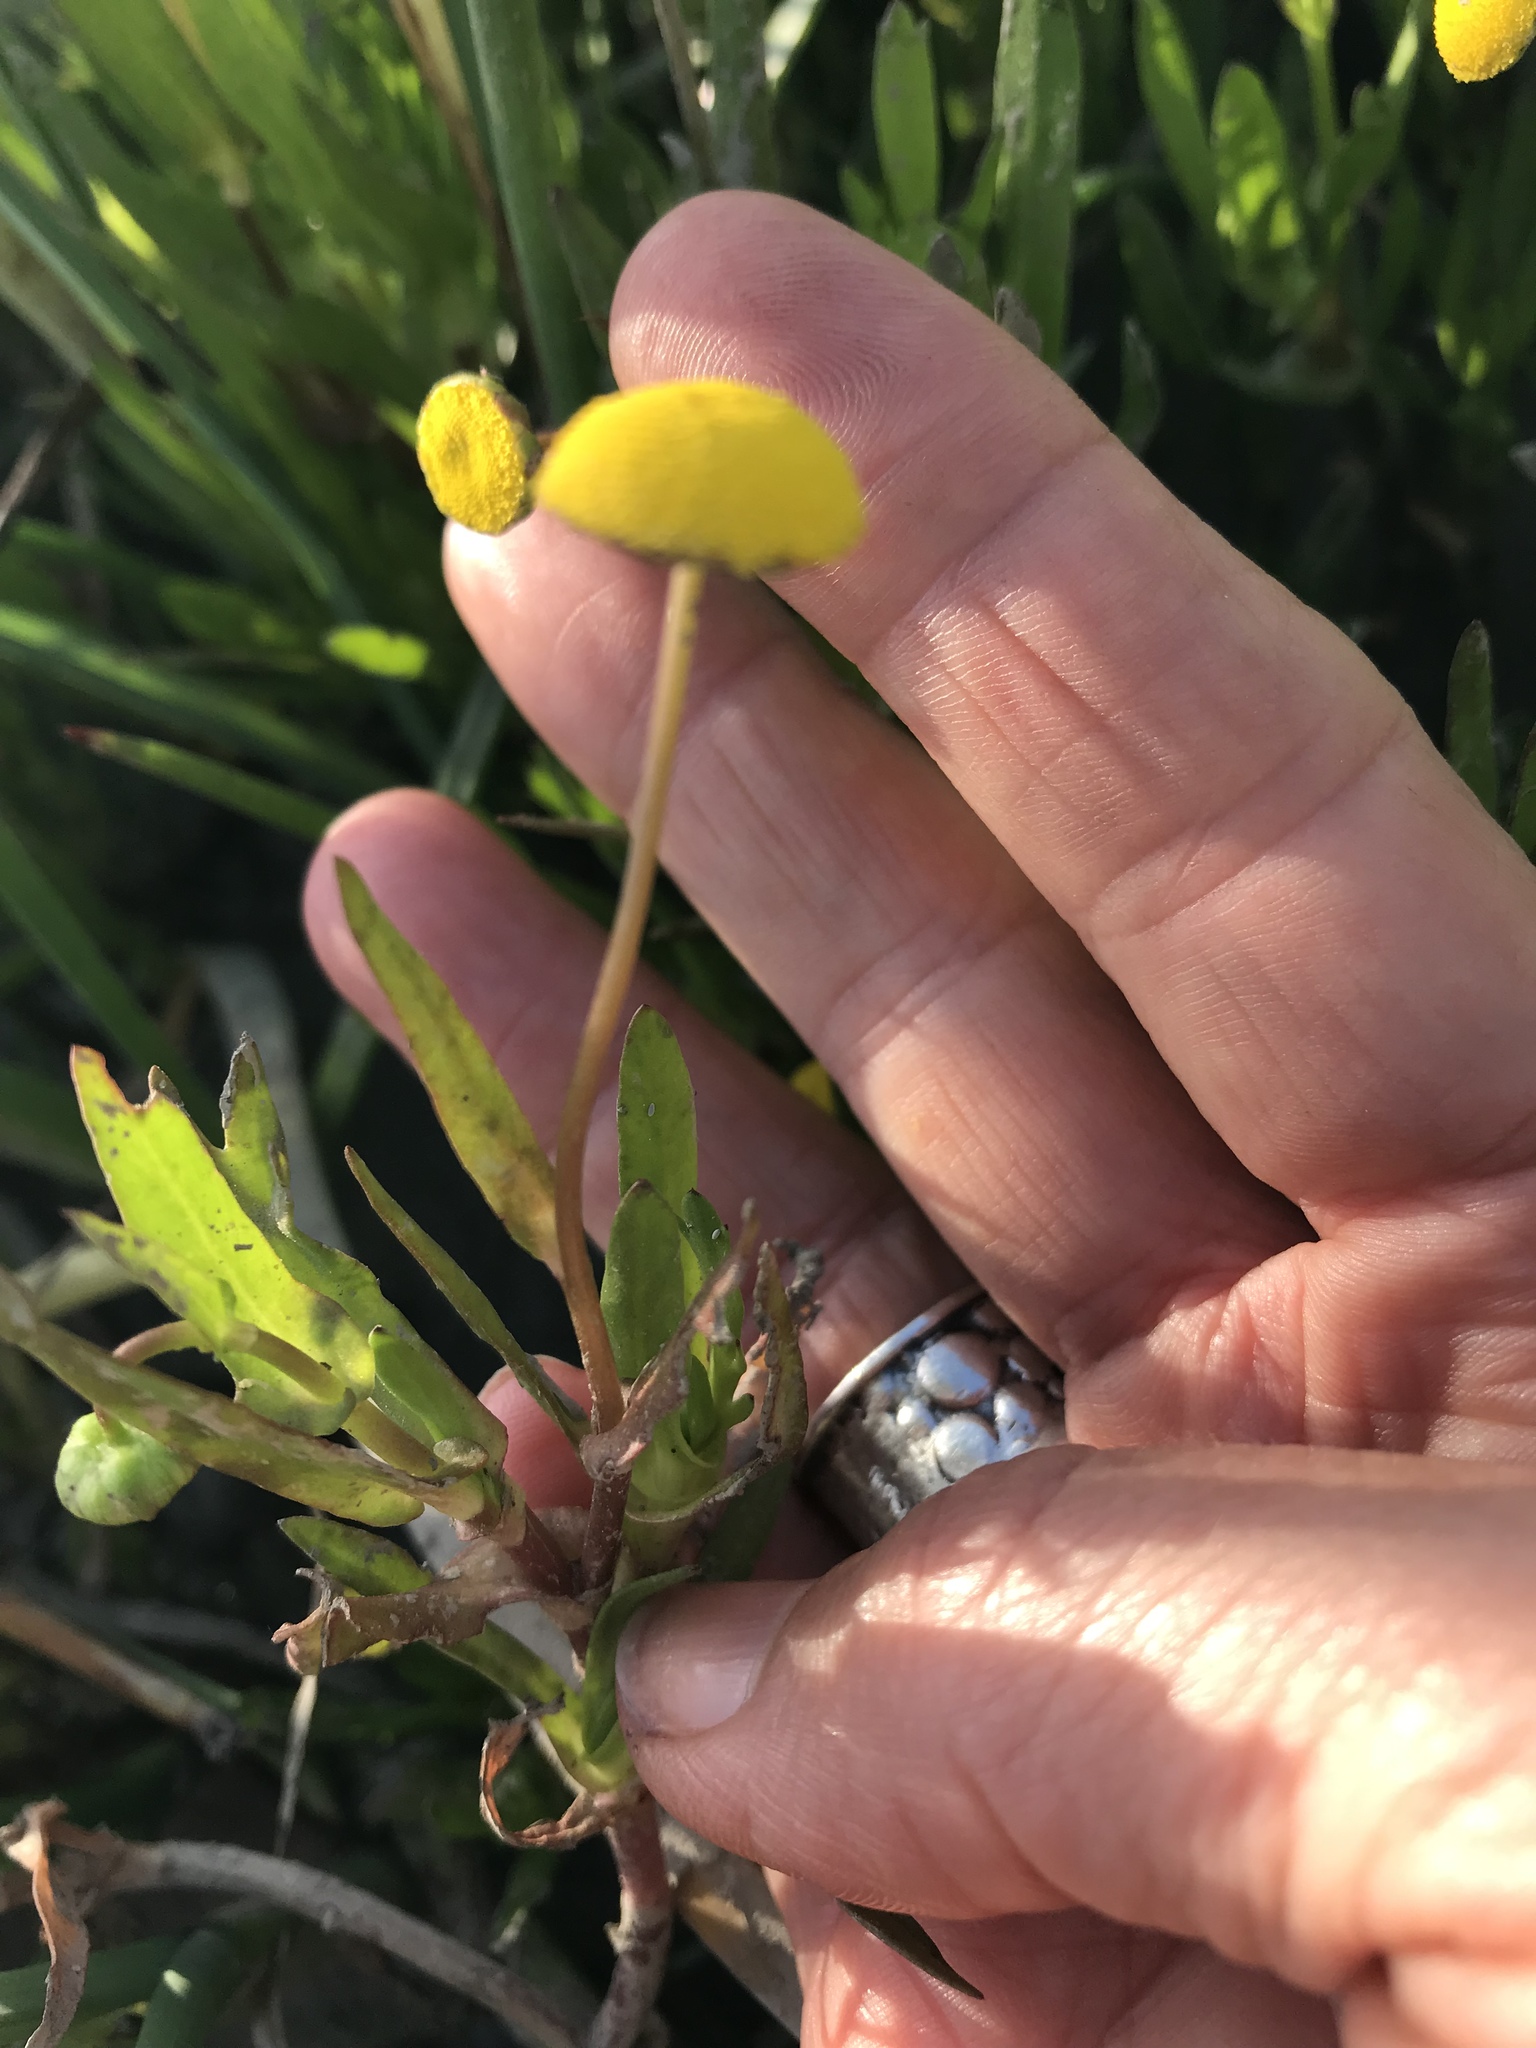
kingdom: Plantae
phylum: Tracheophyta
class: Magnoliopsida
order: Asterales
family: Asteraceae
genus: Cotula
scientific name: Cotula coronopifolia
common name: Buttonweed
